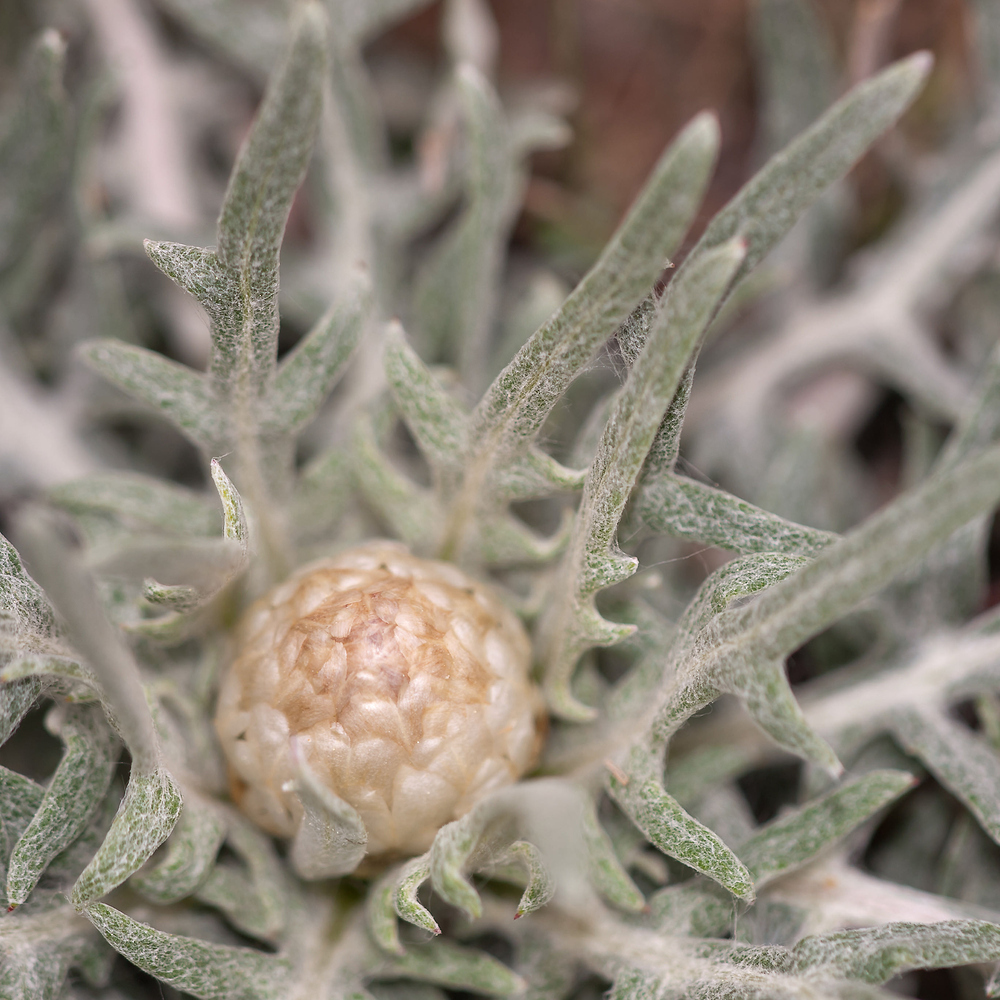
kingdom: Plantae
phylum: Tracheophyta
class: Magnoliopsida
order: Asterales
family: Asteraceae
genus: Leuzea
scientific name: Leuzea conifera
